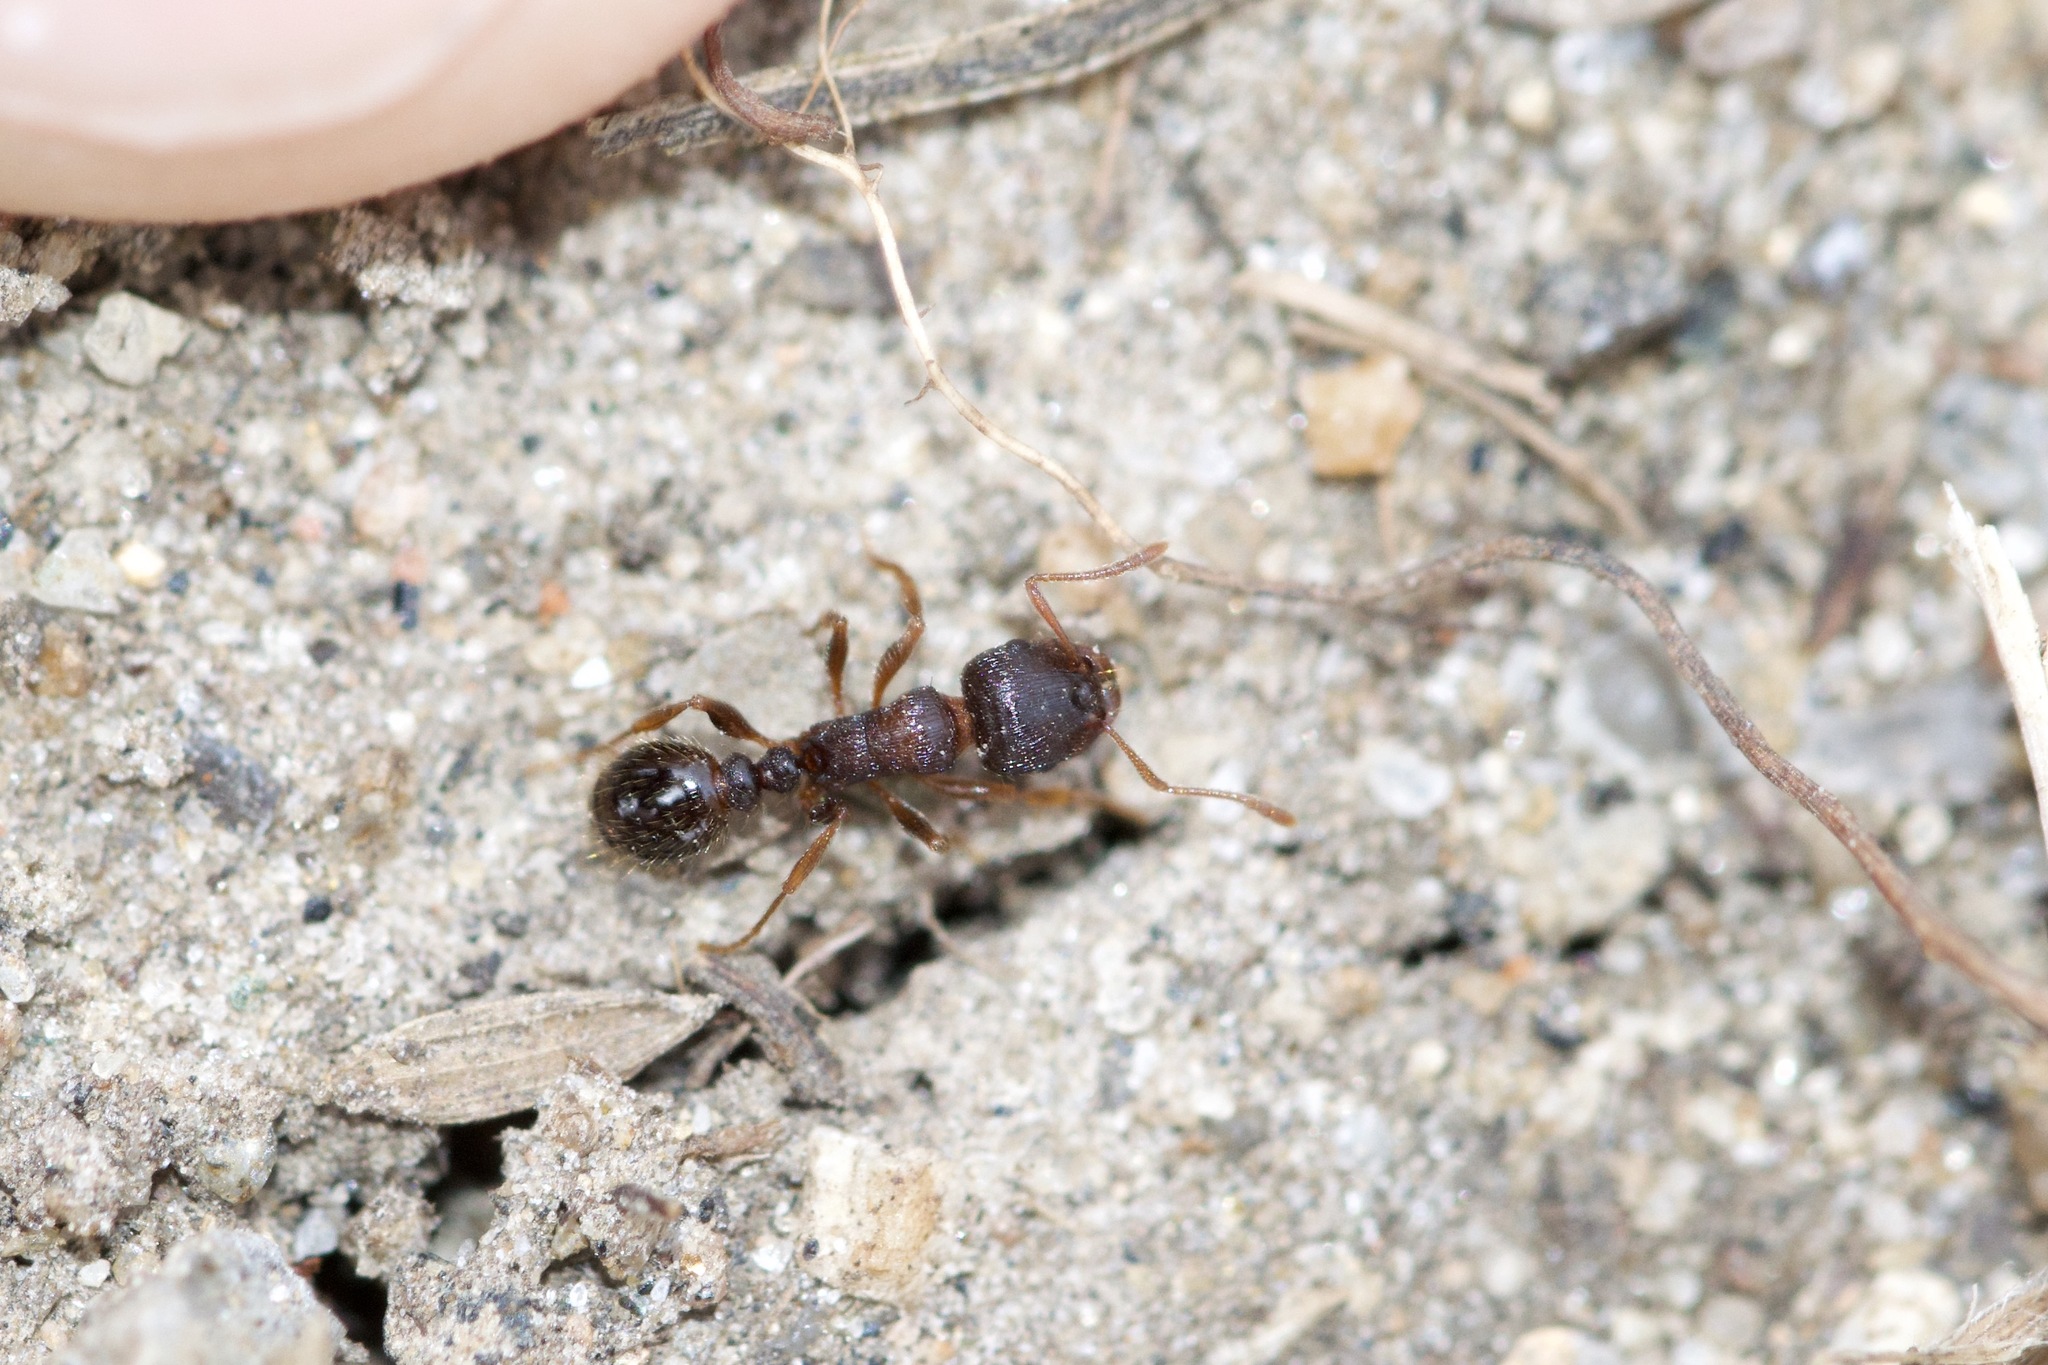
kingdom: Animalia
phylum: Arthropoda
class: Insecta
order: Hymenoptera
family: Formicidae
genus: Tetramorium
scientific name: Tetramorium immigrans
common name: Pavement ant
